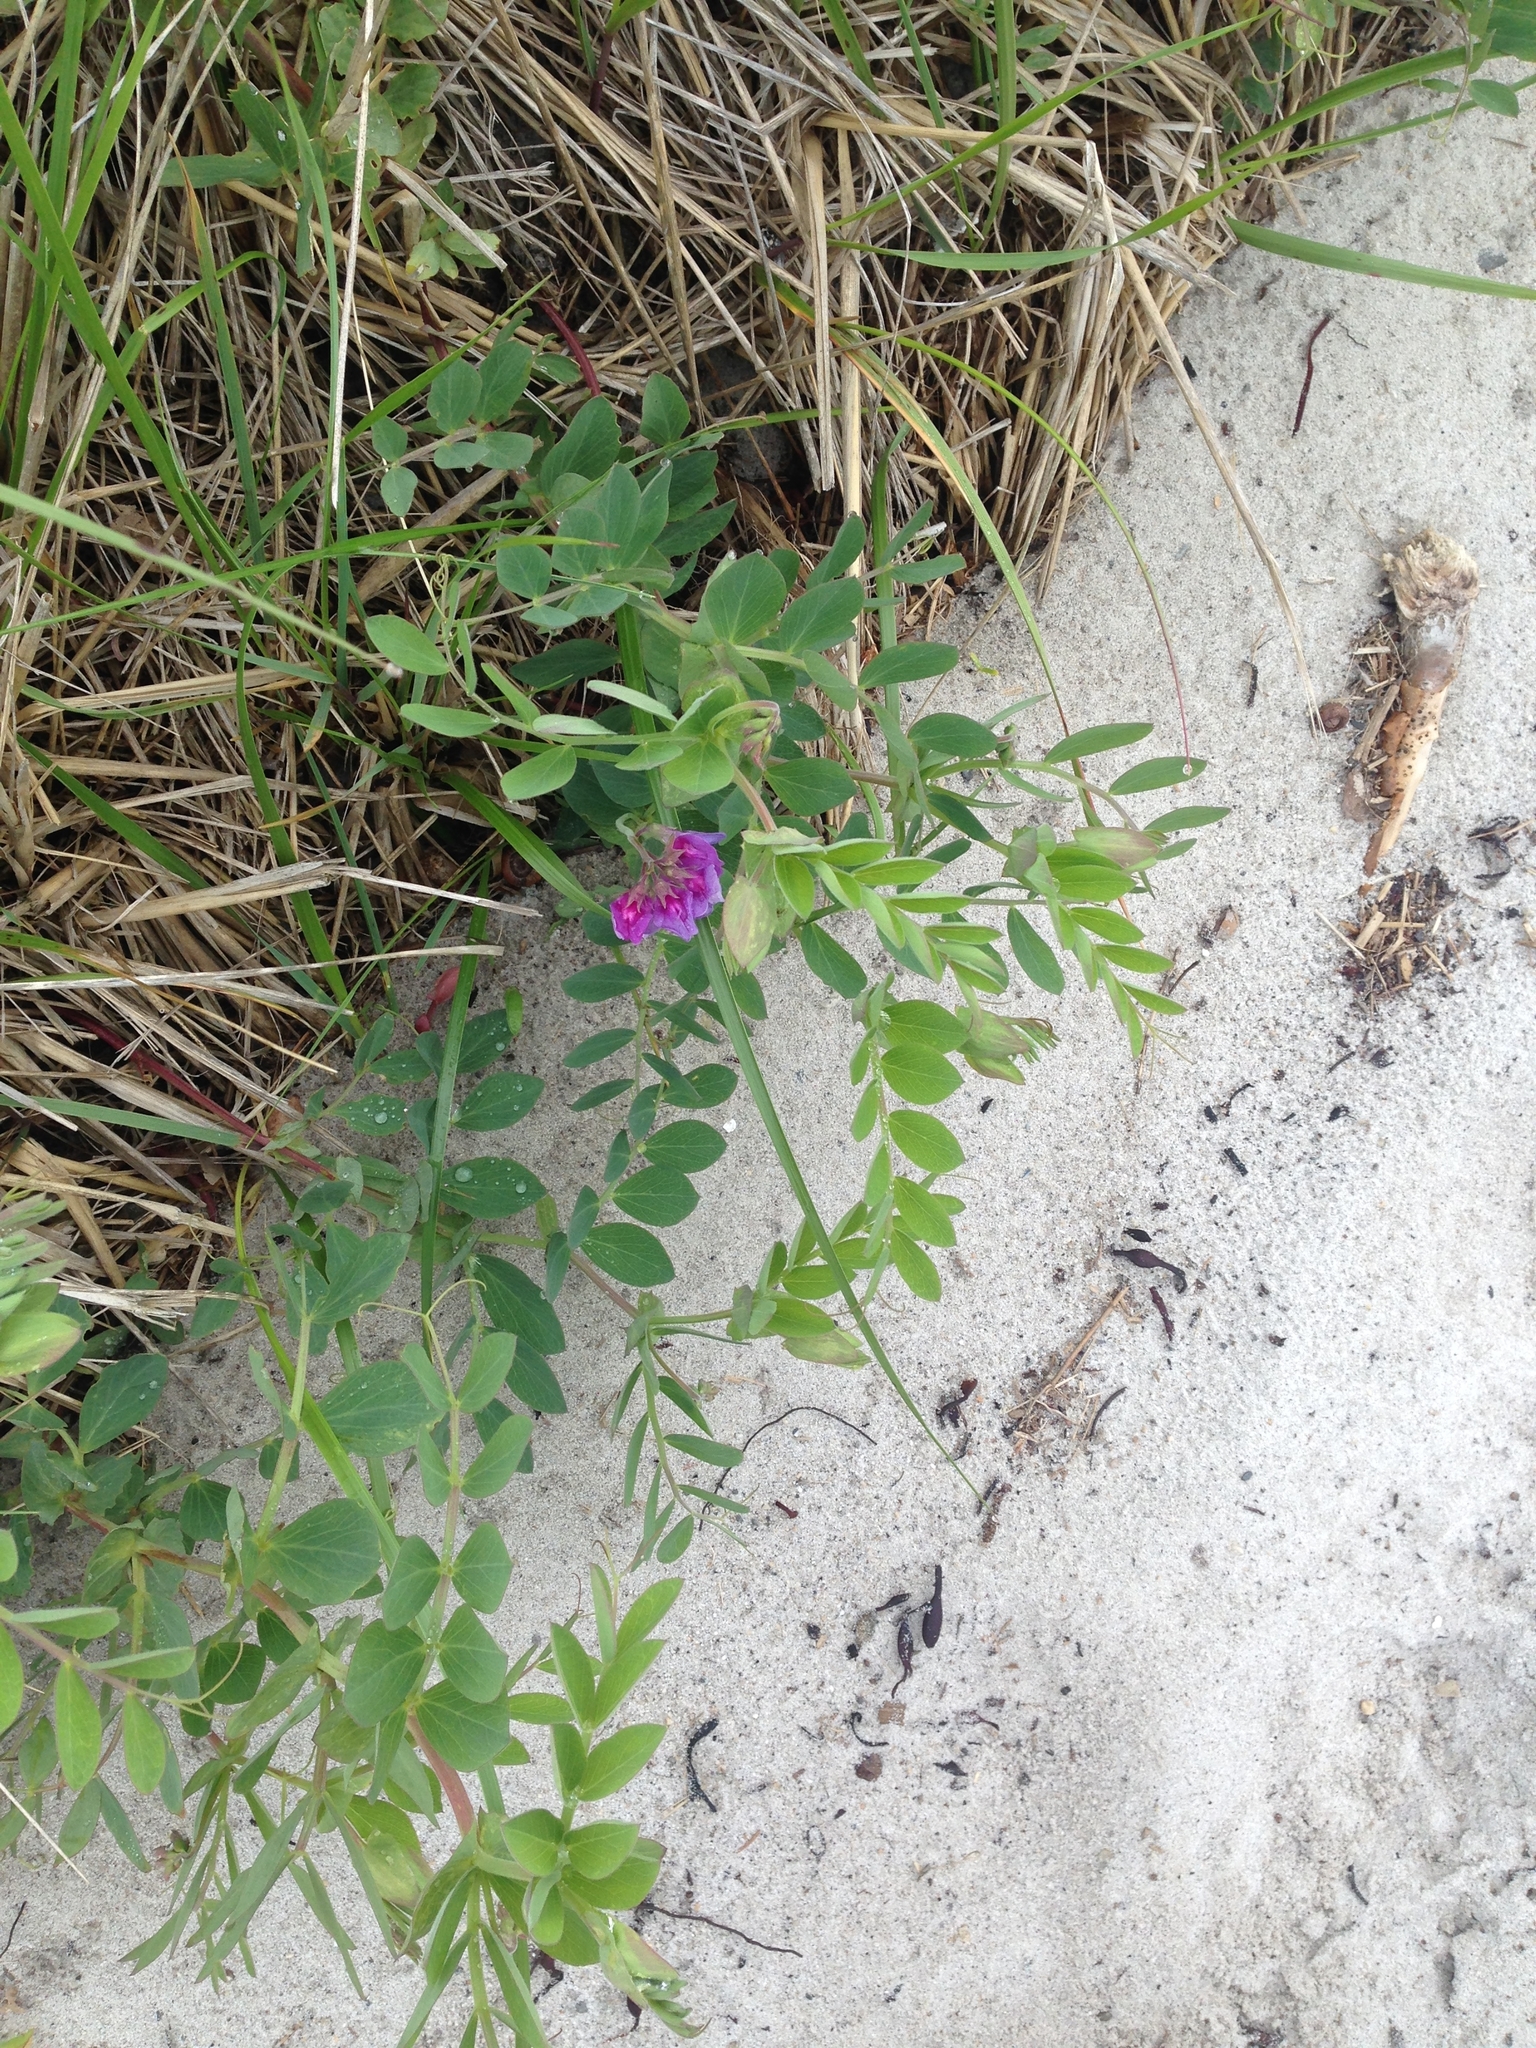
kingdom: Plantae
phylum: Tracheophyta
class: Magnoliopsida
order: Fabales
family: Fabaceae
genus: Lathyrus
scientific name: Lathyrus japonicus
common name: Sea pea
